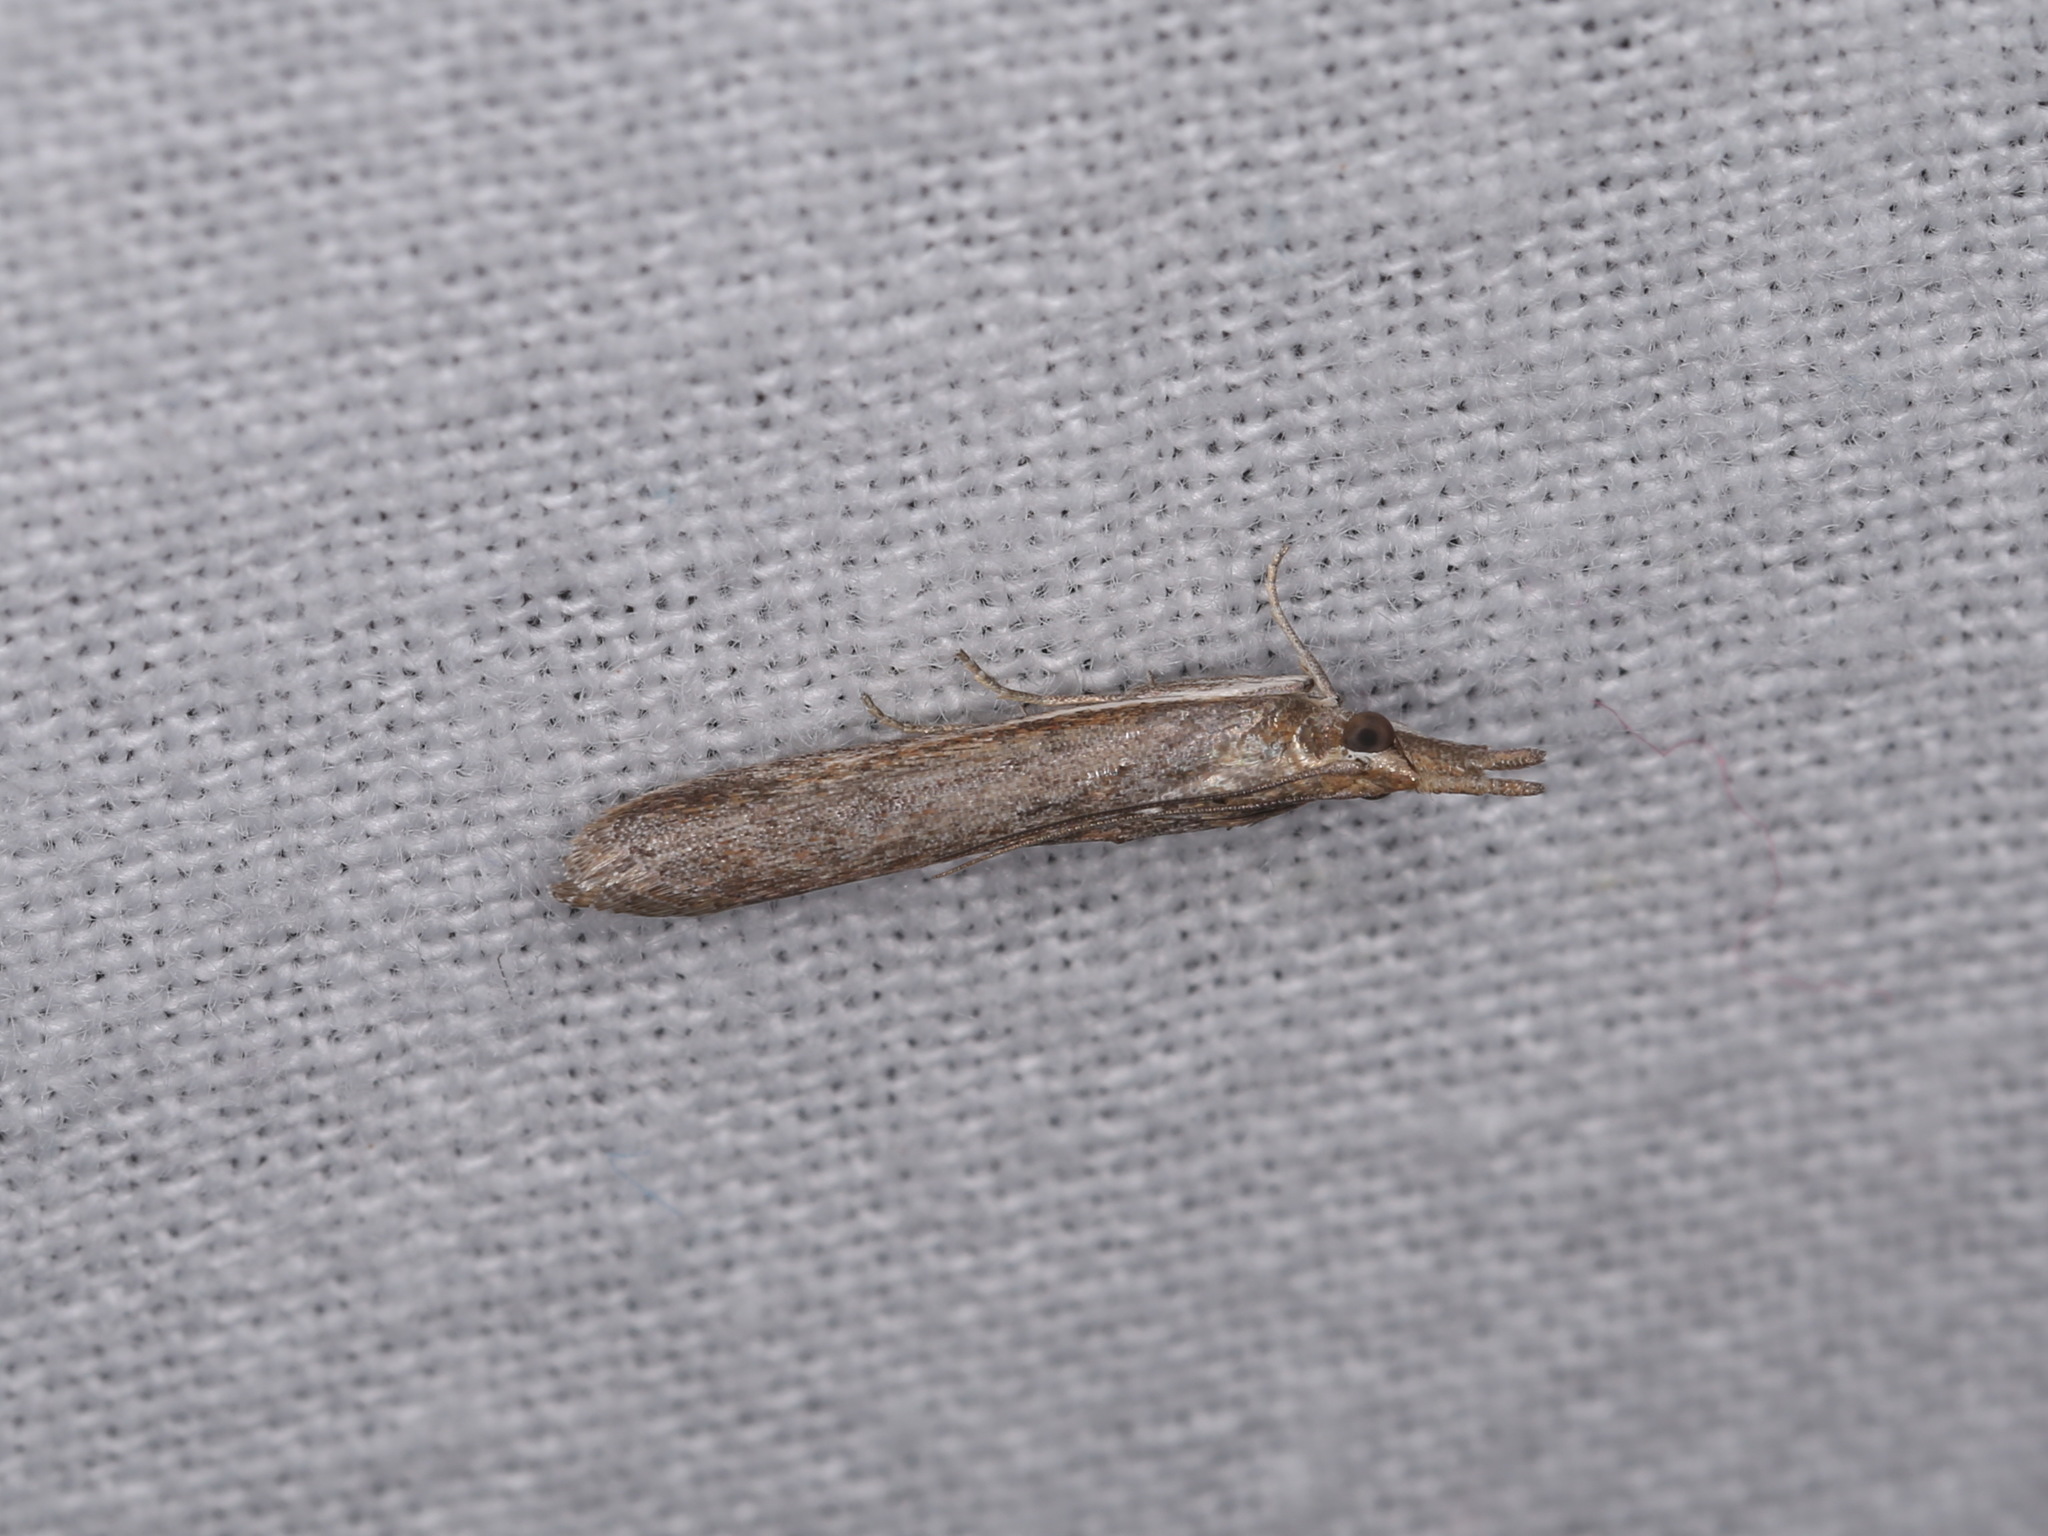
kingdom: Animalia
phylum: Arthropoda
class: Insecta
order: Lepidoptera
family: Pyralidae
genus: Etiella
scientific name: Etiella behrii
